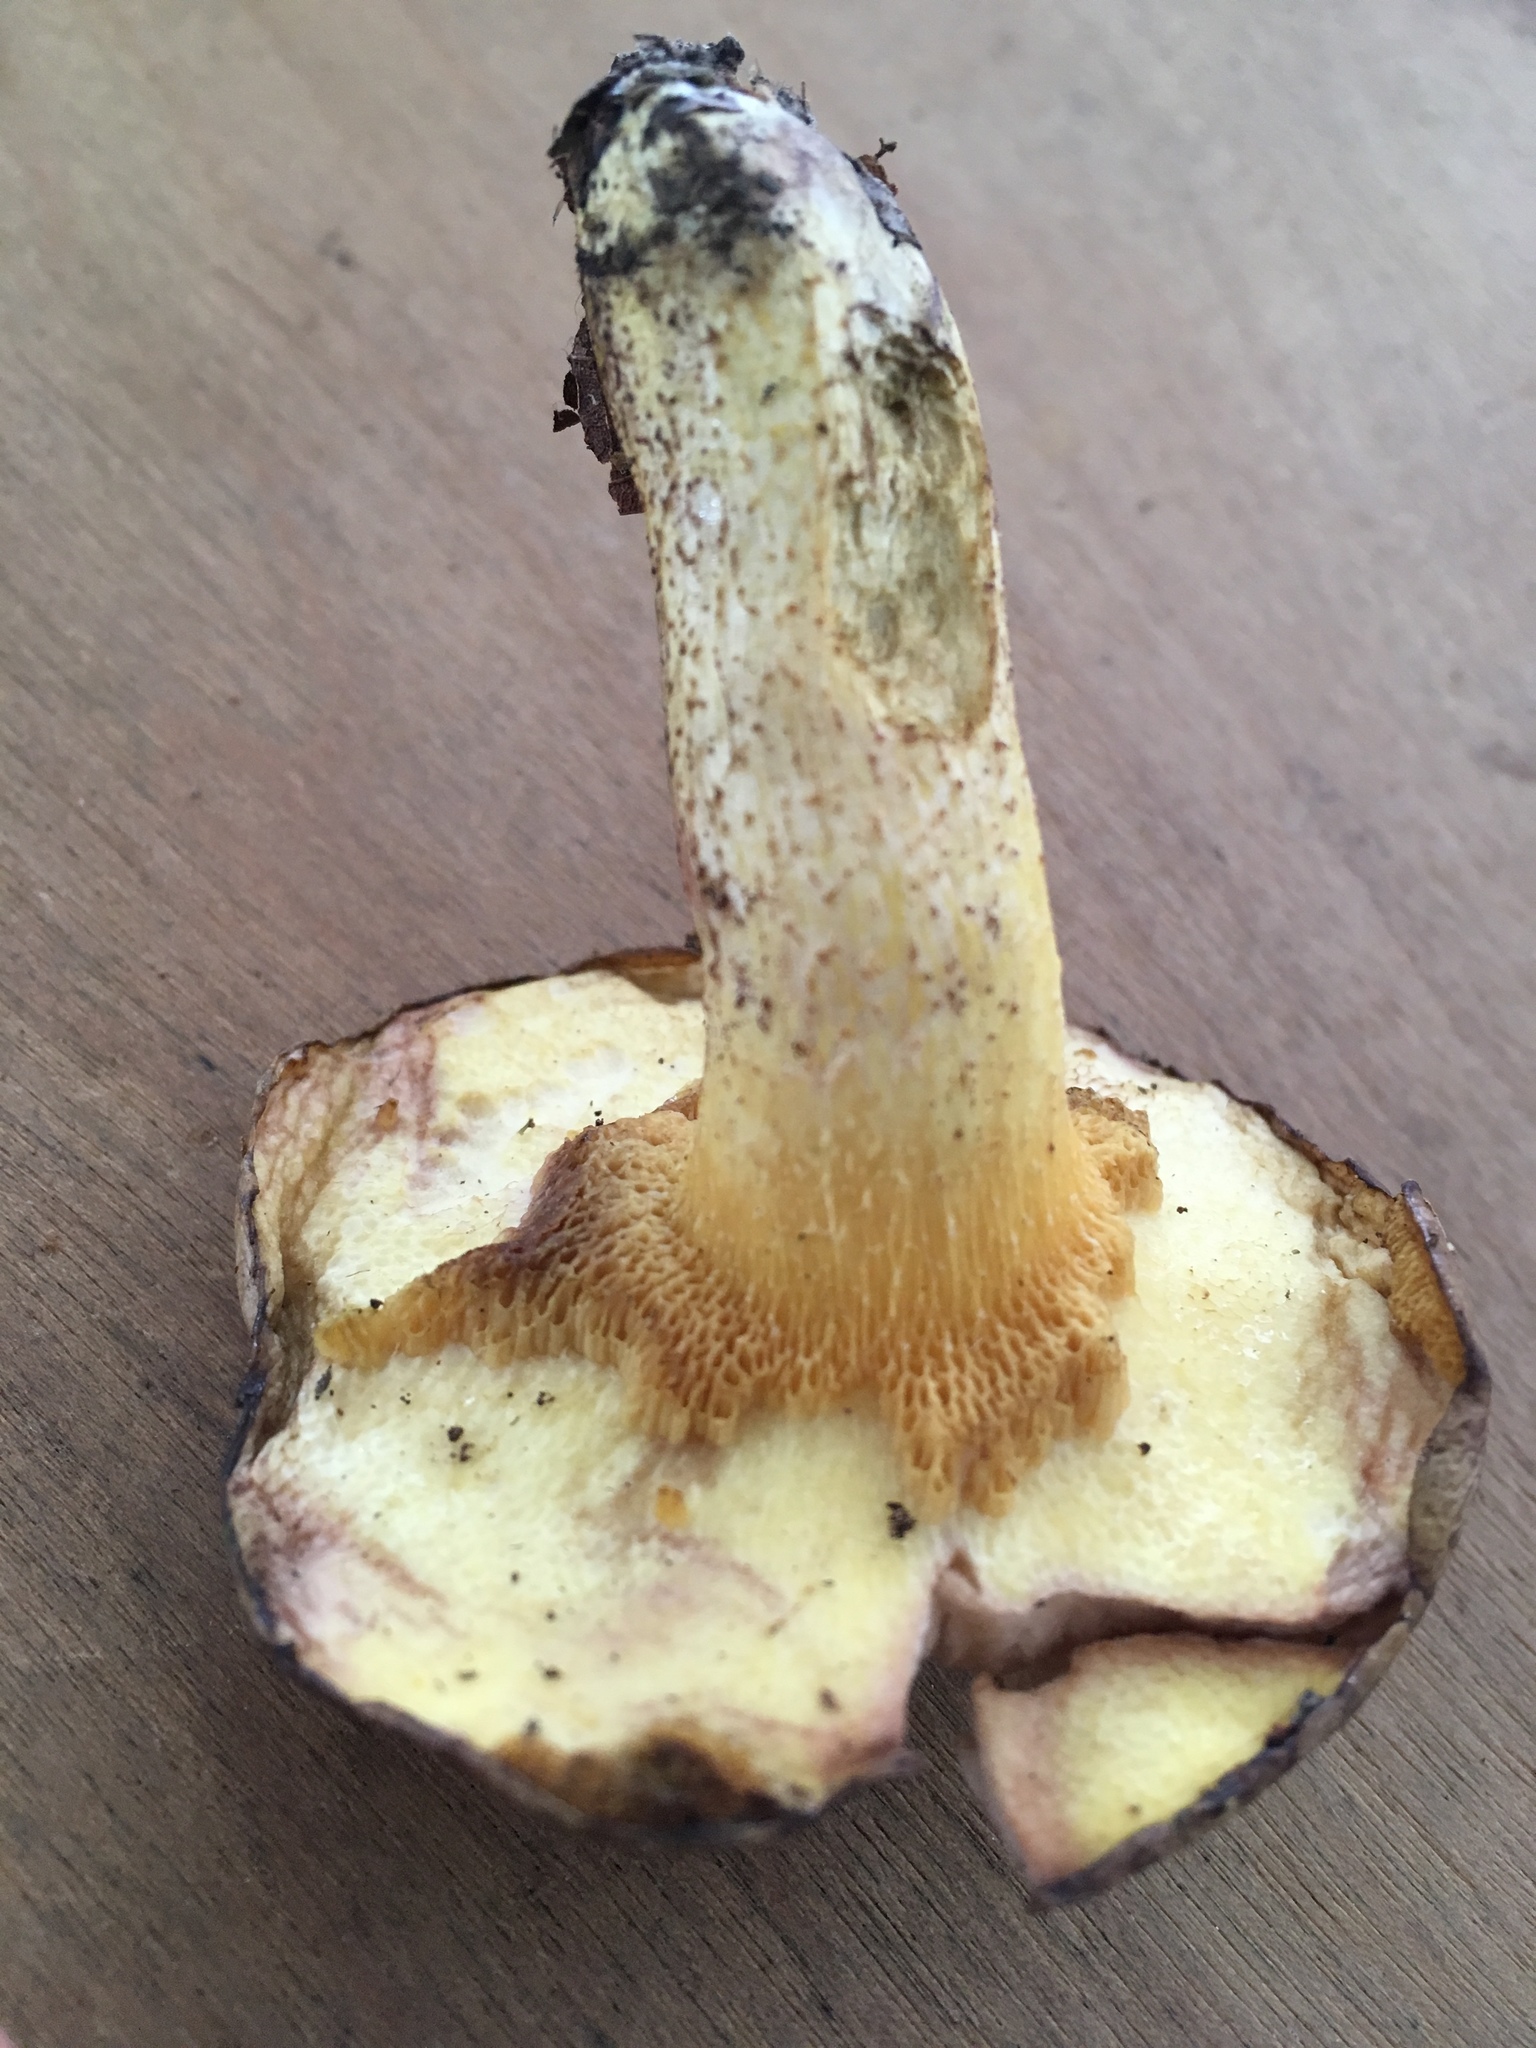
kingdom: Fungi
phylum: Basidiomycota
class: Agaricomycetes
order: Boletales
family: Suillaceae
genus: Suillus
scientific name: Suillus granulatus
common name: Weeping bolete
